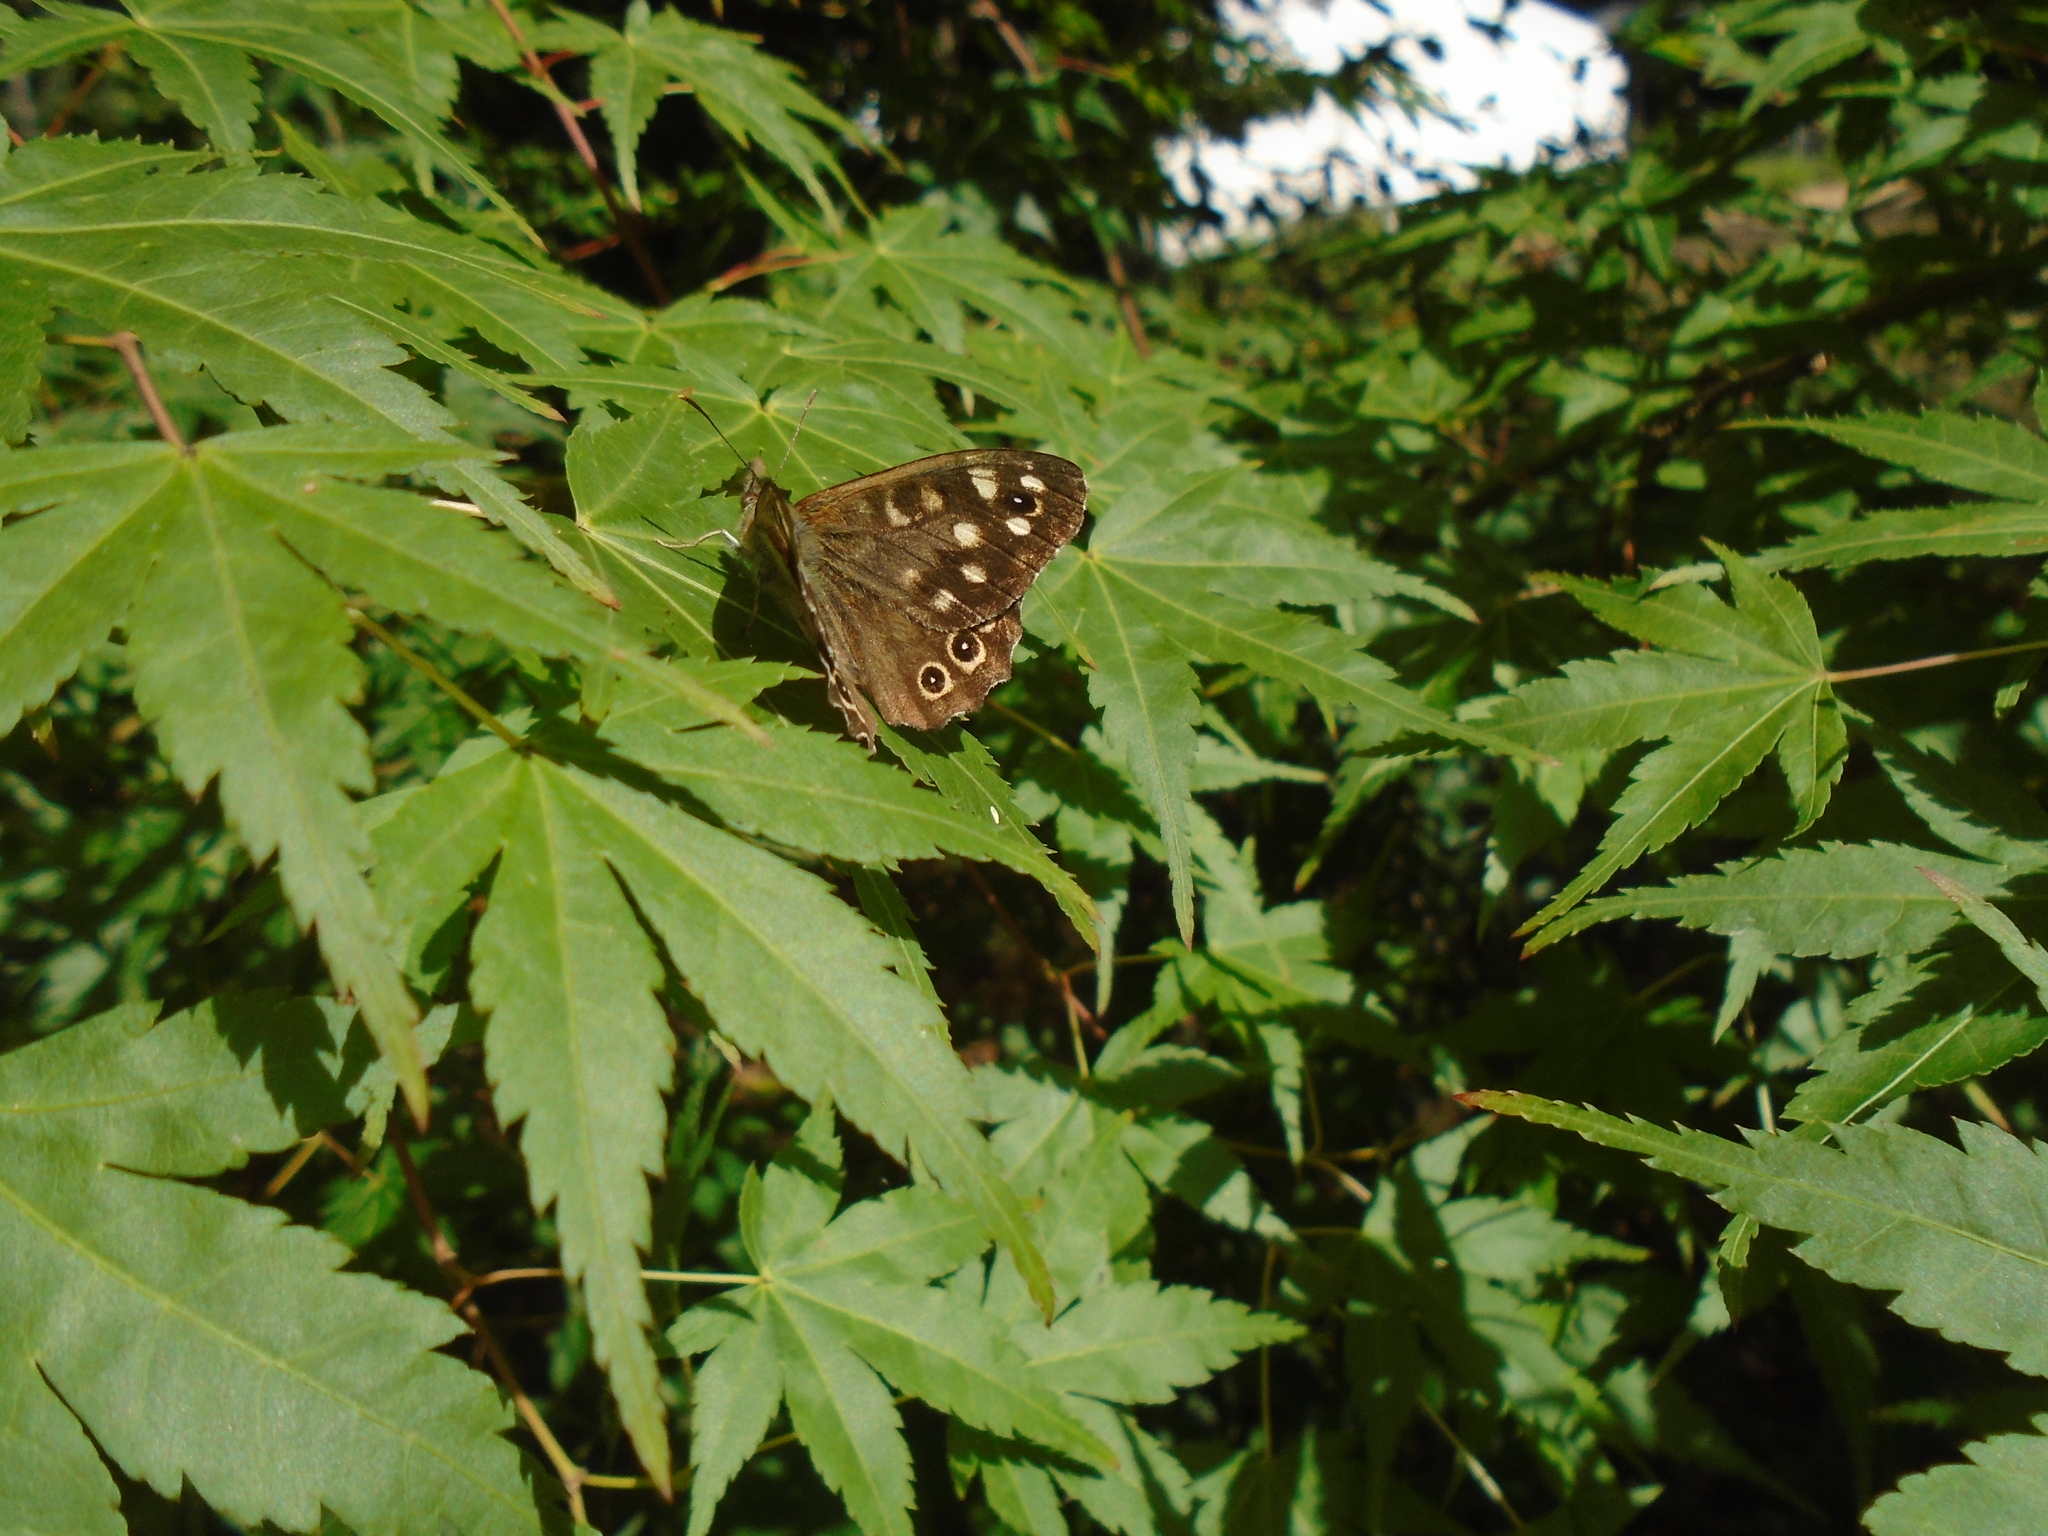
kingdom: Animalia
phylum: Arthropoda
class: Insecta
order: Lepidoptera
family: Nymphalidae
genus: Pararge
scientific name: Pararge aegeria
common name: Speckled wood
